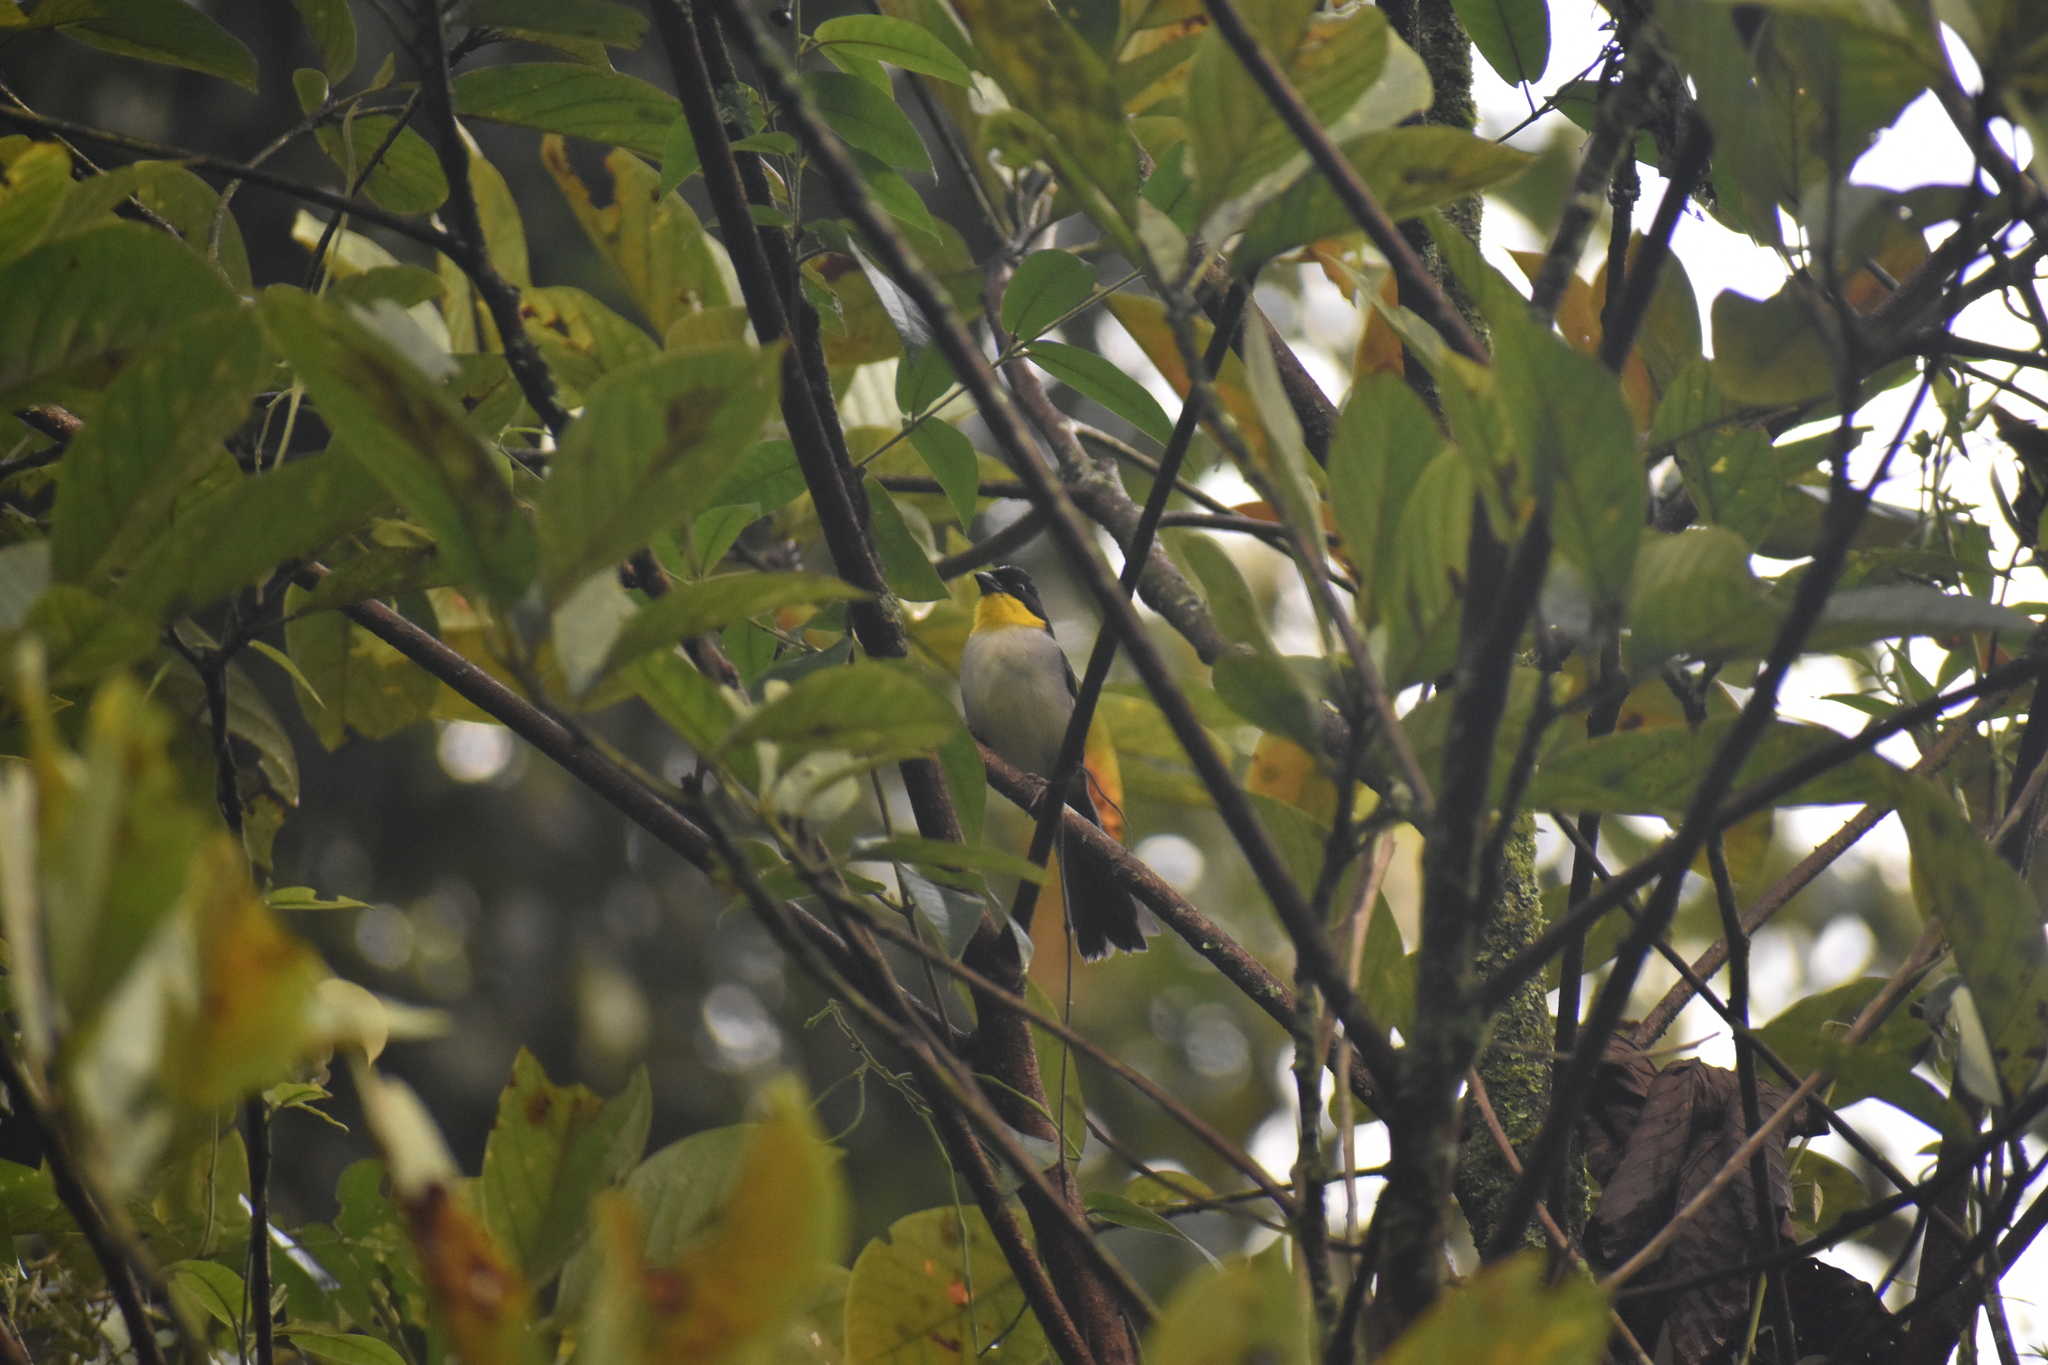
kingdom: Animalia
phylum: Chordata
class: Aves
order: Passeriformes
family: Passerellidae
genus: Atlapetes
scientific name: Atlapetes albinucha
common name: White-naped brush-finch
